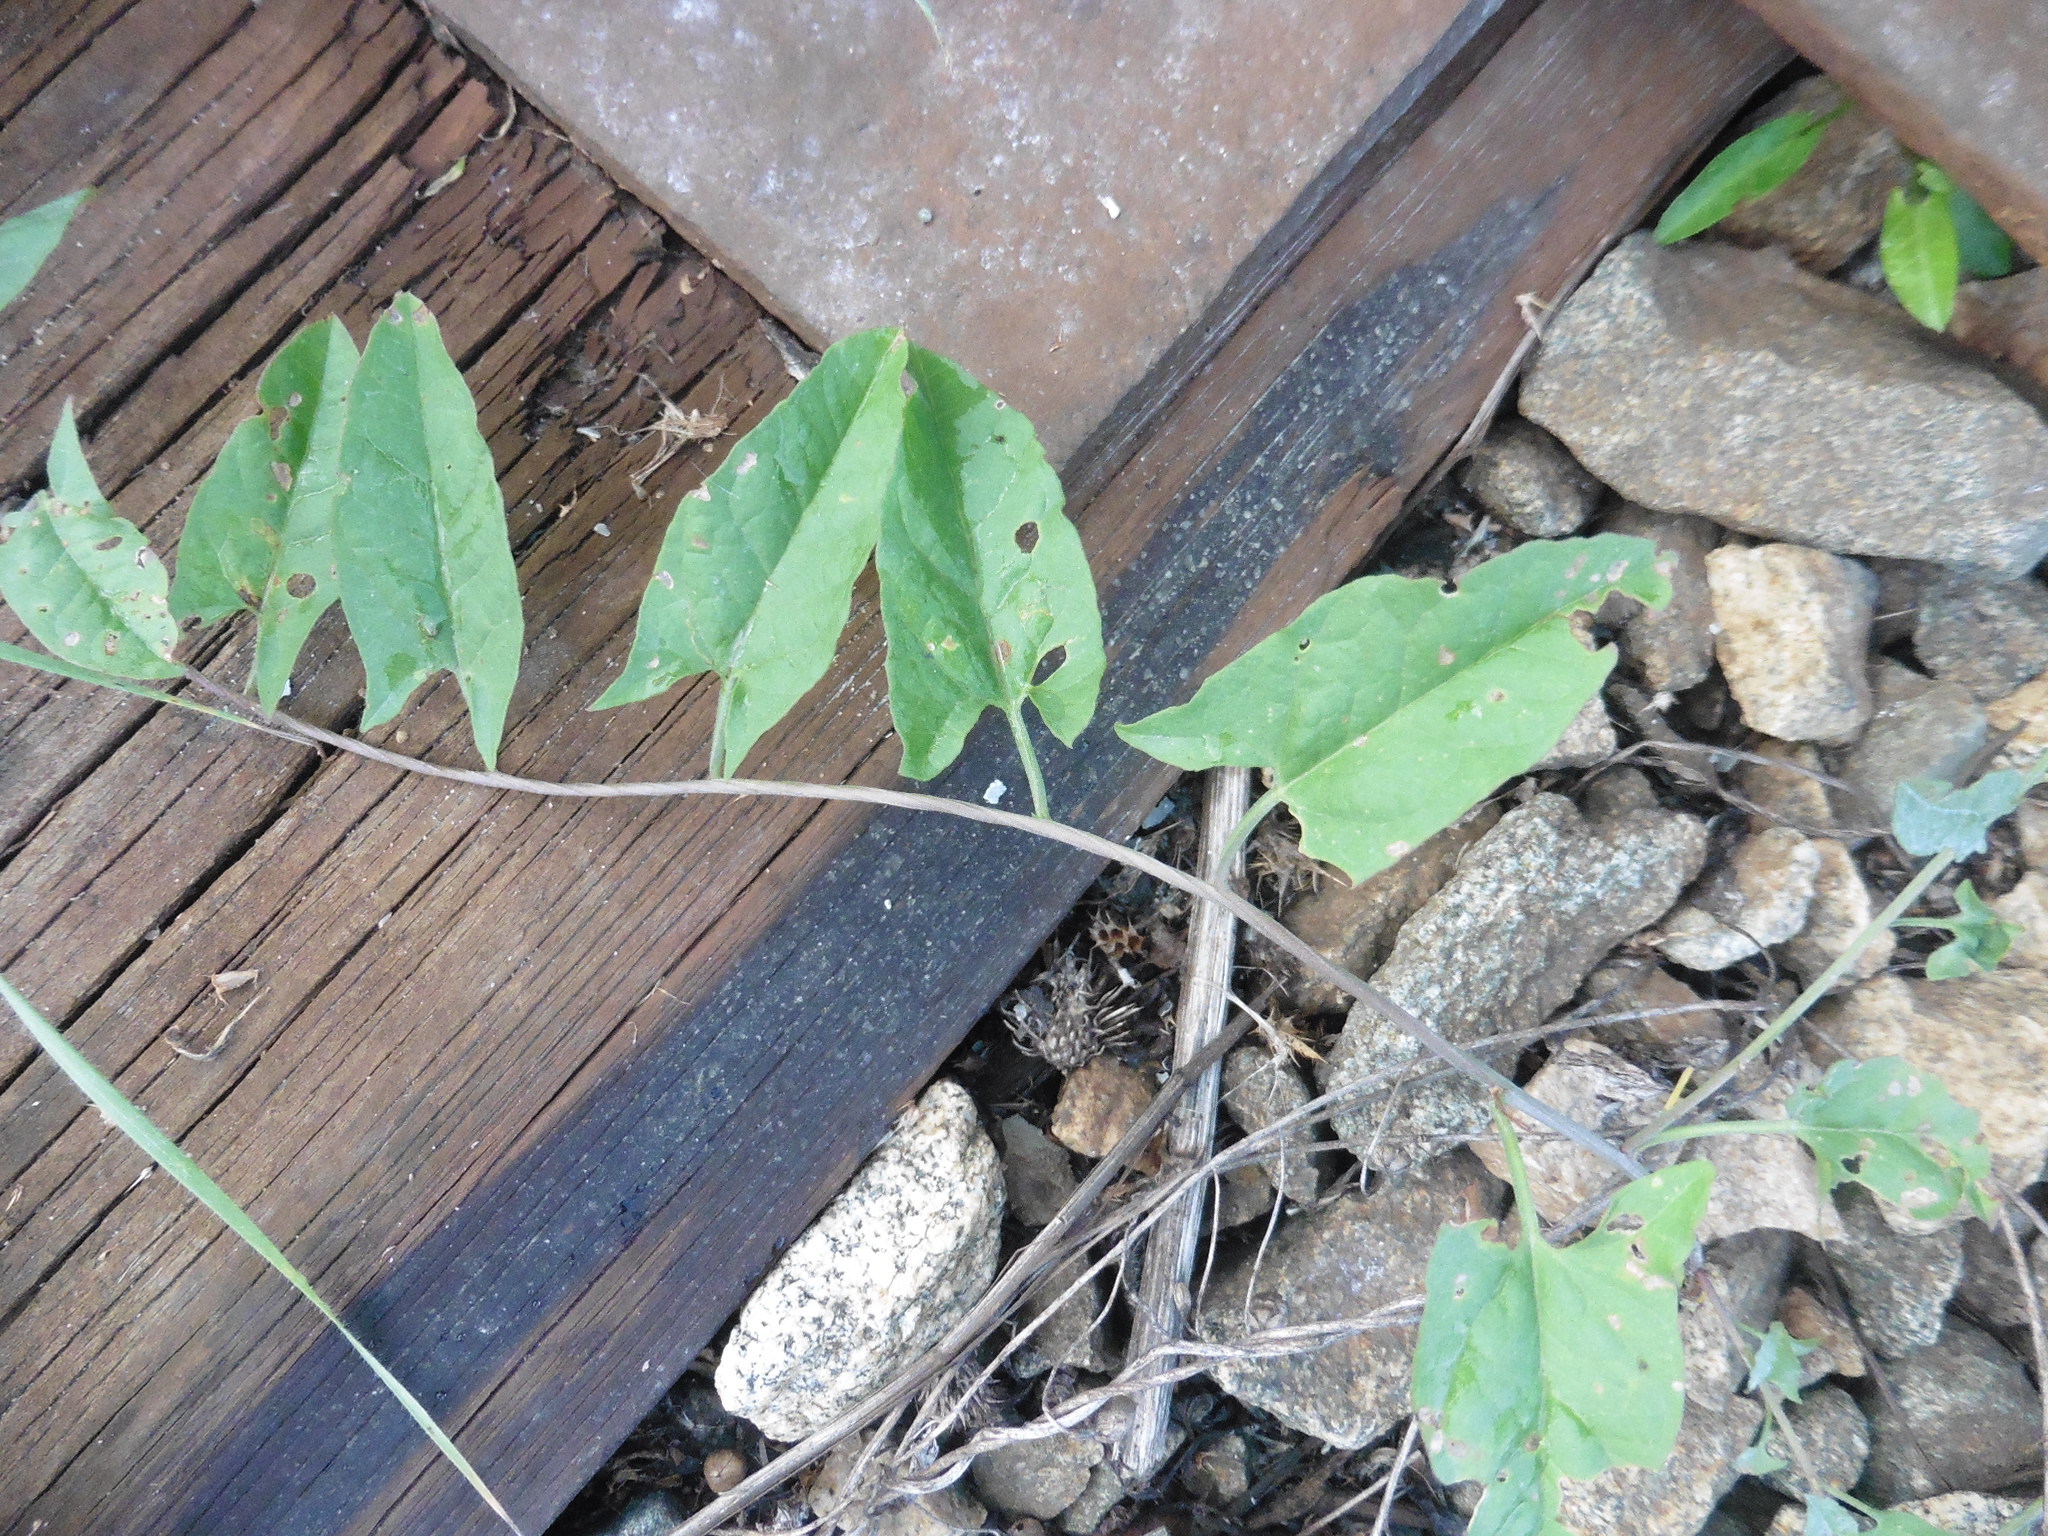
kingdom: Plantae
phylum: Tracheophyta
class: Magnoliopsida
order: Solanales
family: Convolvulaceae
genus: Convolvulus
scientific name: Convolvulus arvensis
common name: Field bindweed
